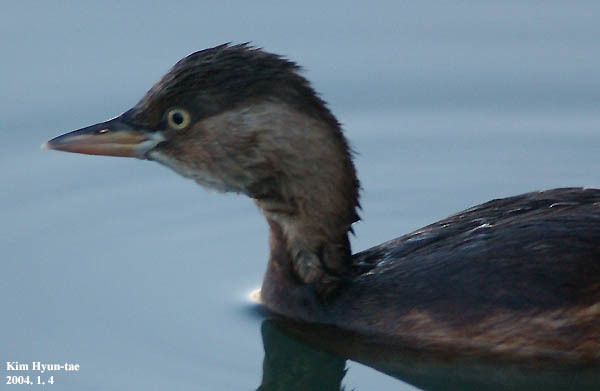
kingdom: Animalia
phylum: Chordata
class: Aves
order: Podicipediformes
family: Podicipedidae
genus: Tachybaptus
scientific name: Tachybaptus ruficollis
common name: Little grebe
